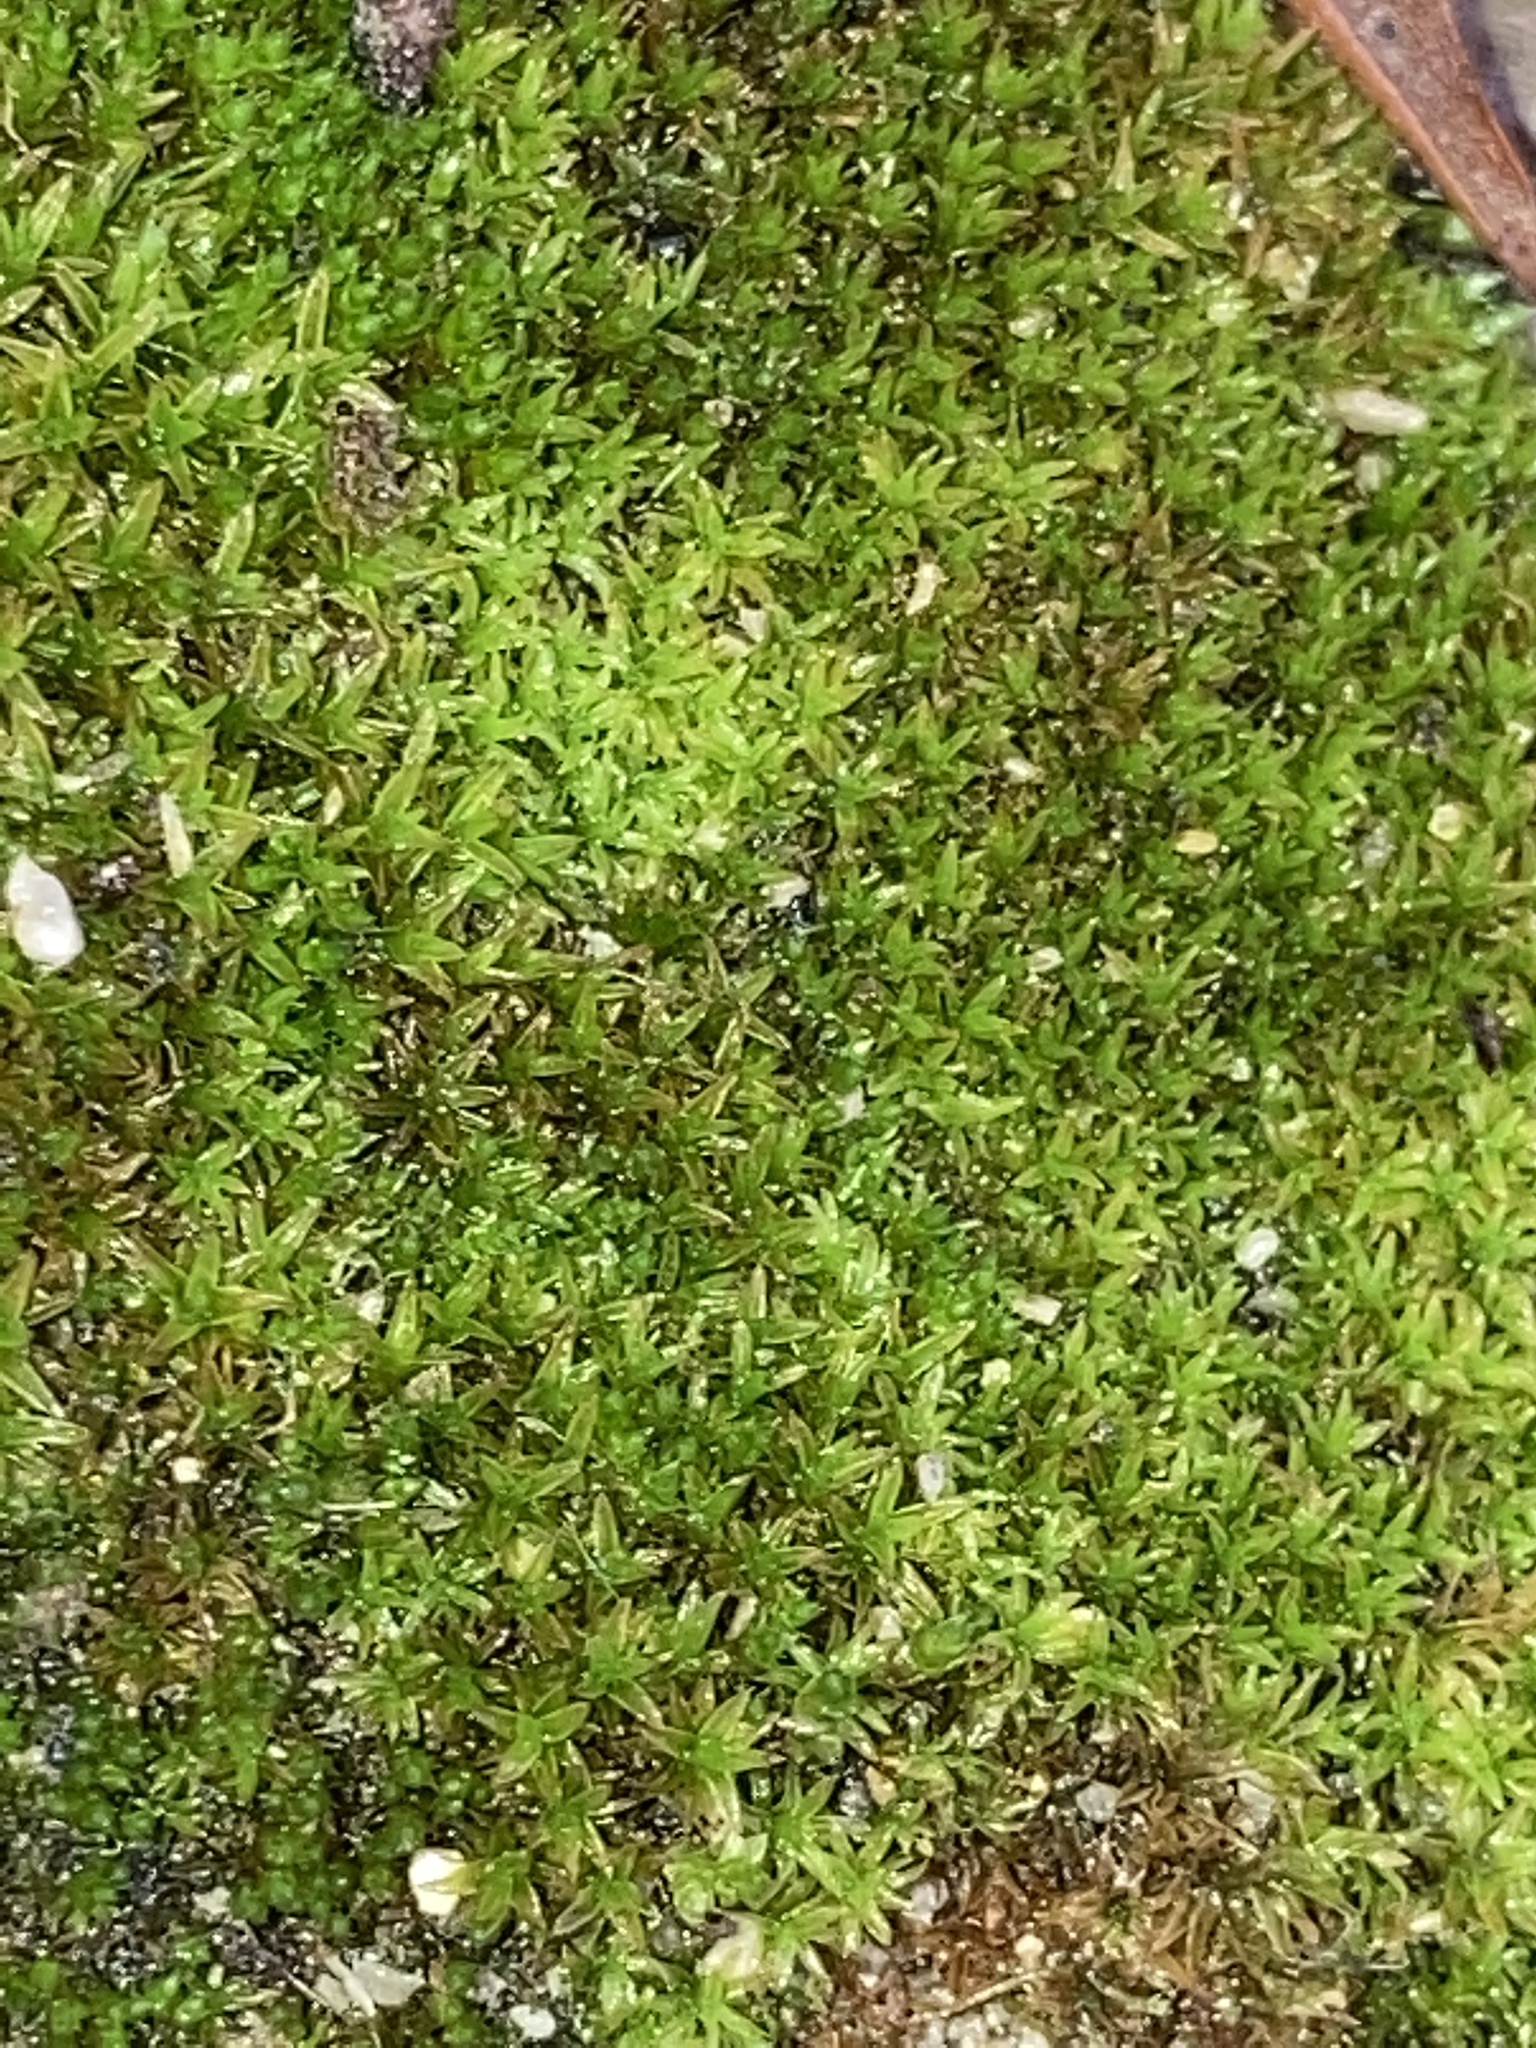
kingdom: Plantae
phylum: Bryophyta
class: Bryopsida
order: Pottiales
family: Pottiaceae
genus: Barbula
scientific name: Barbula unguiculata
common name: Prickly beard moss
